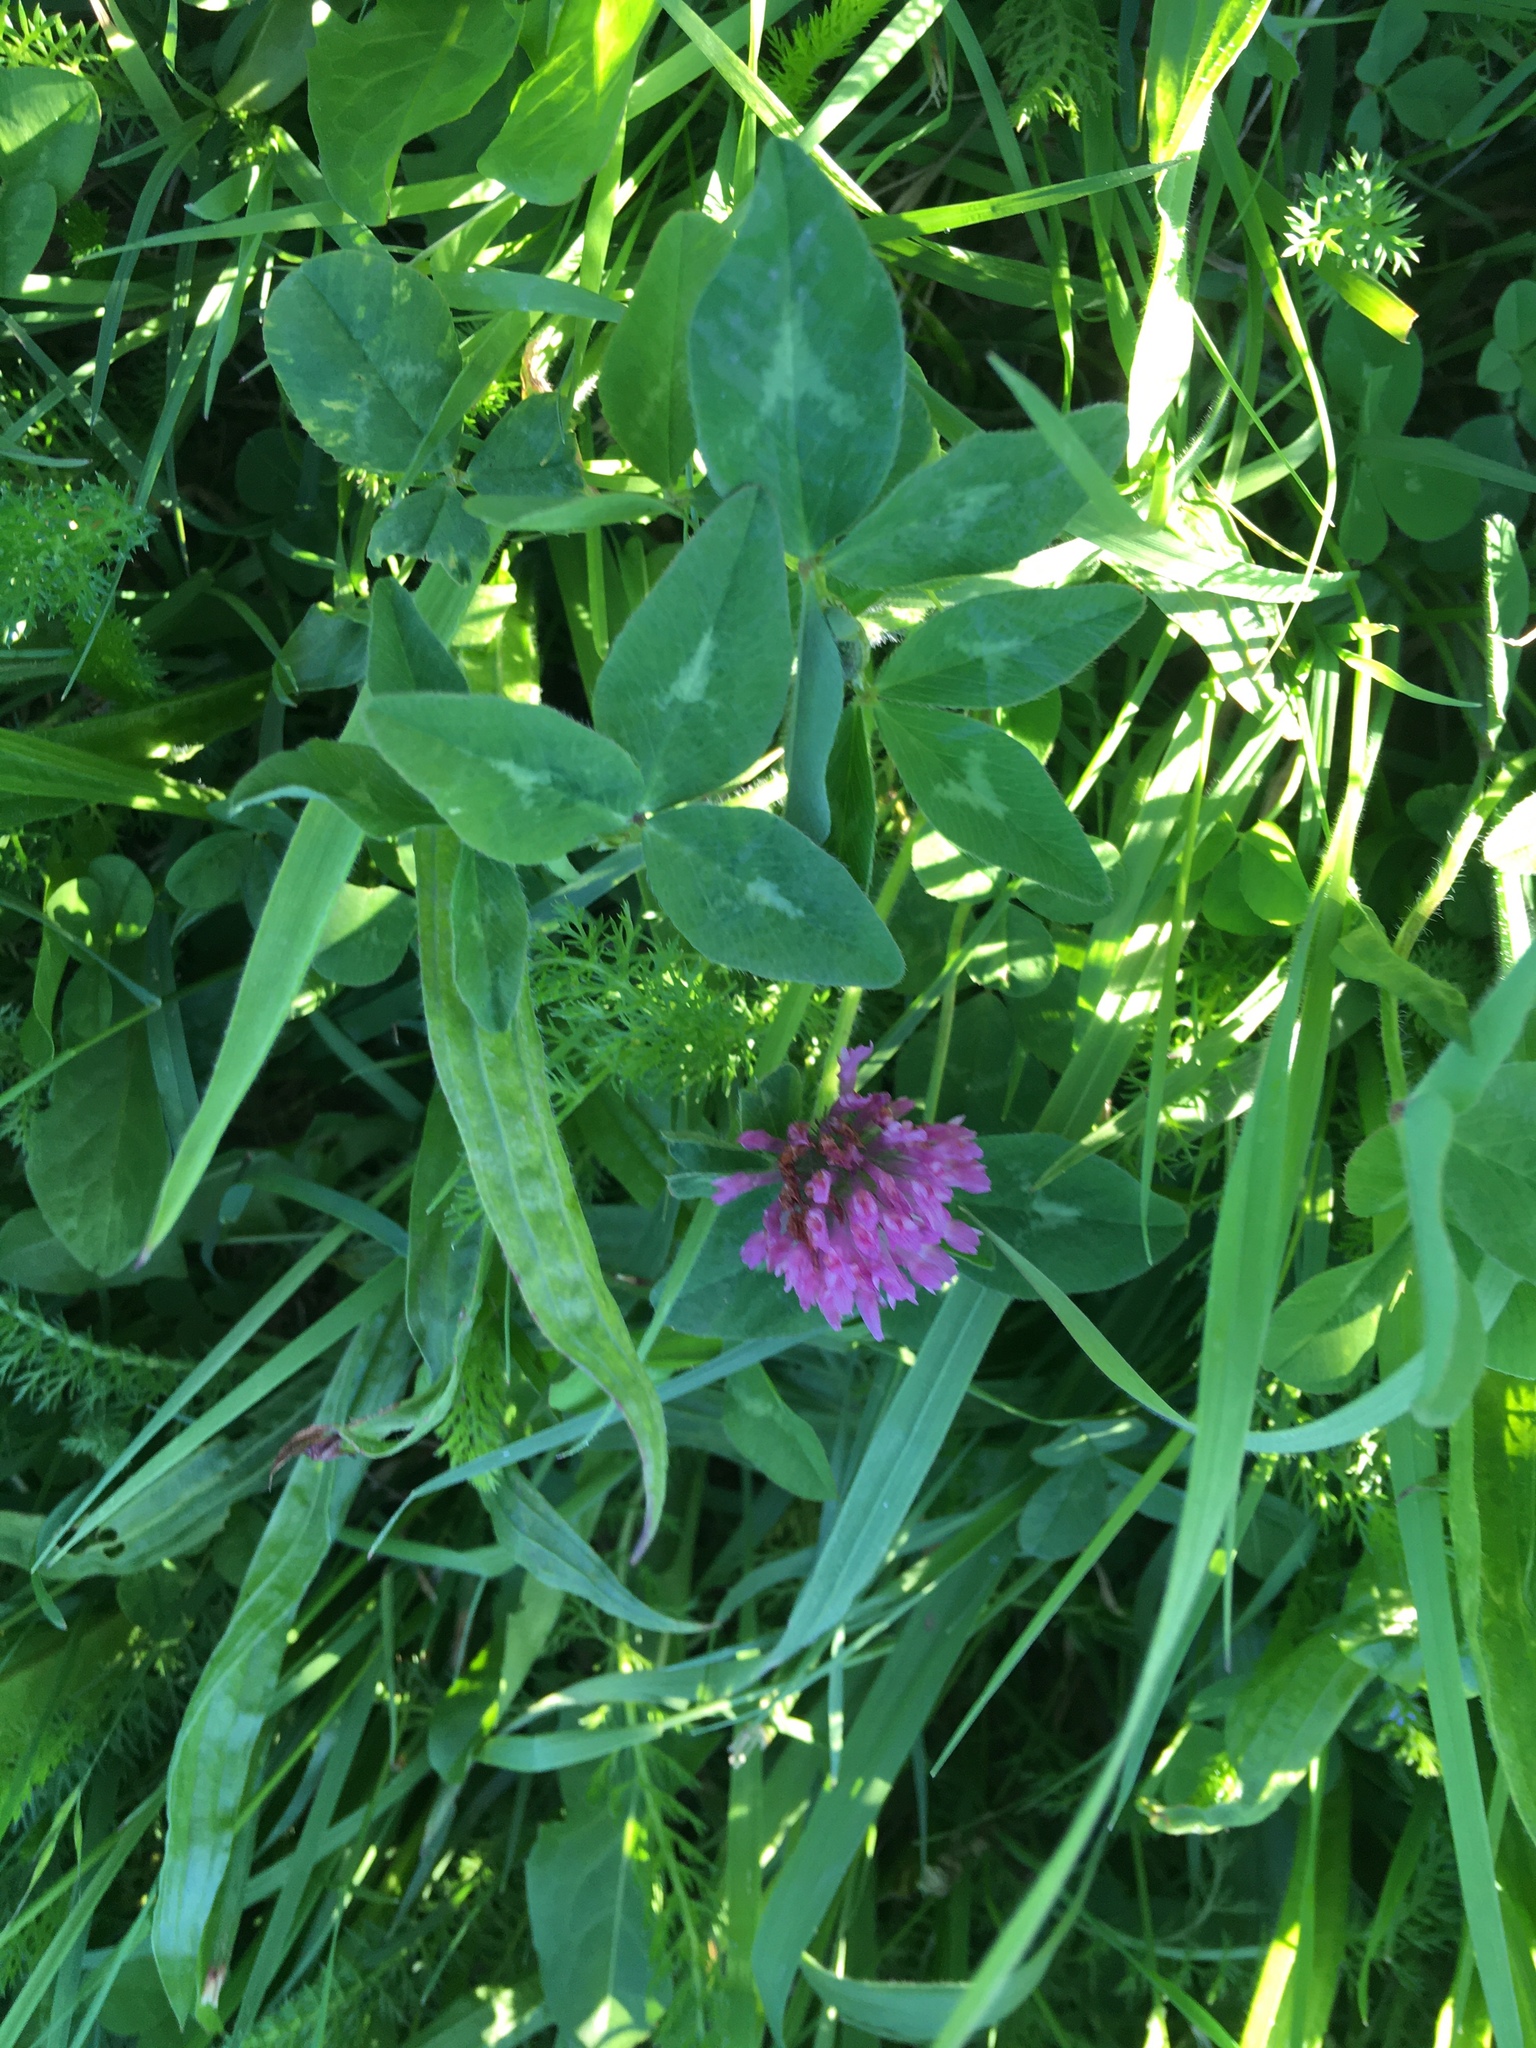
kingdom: Plantae
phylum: Tracheophyta
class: Magnoliopsida
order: Fabales
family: Fabaceae
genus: Trifolium
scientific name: Trifolium pratense
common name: Red clover
